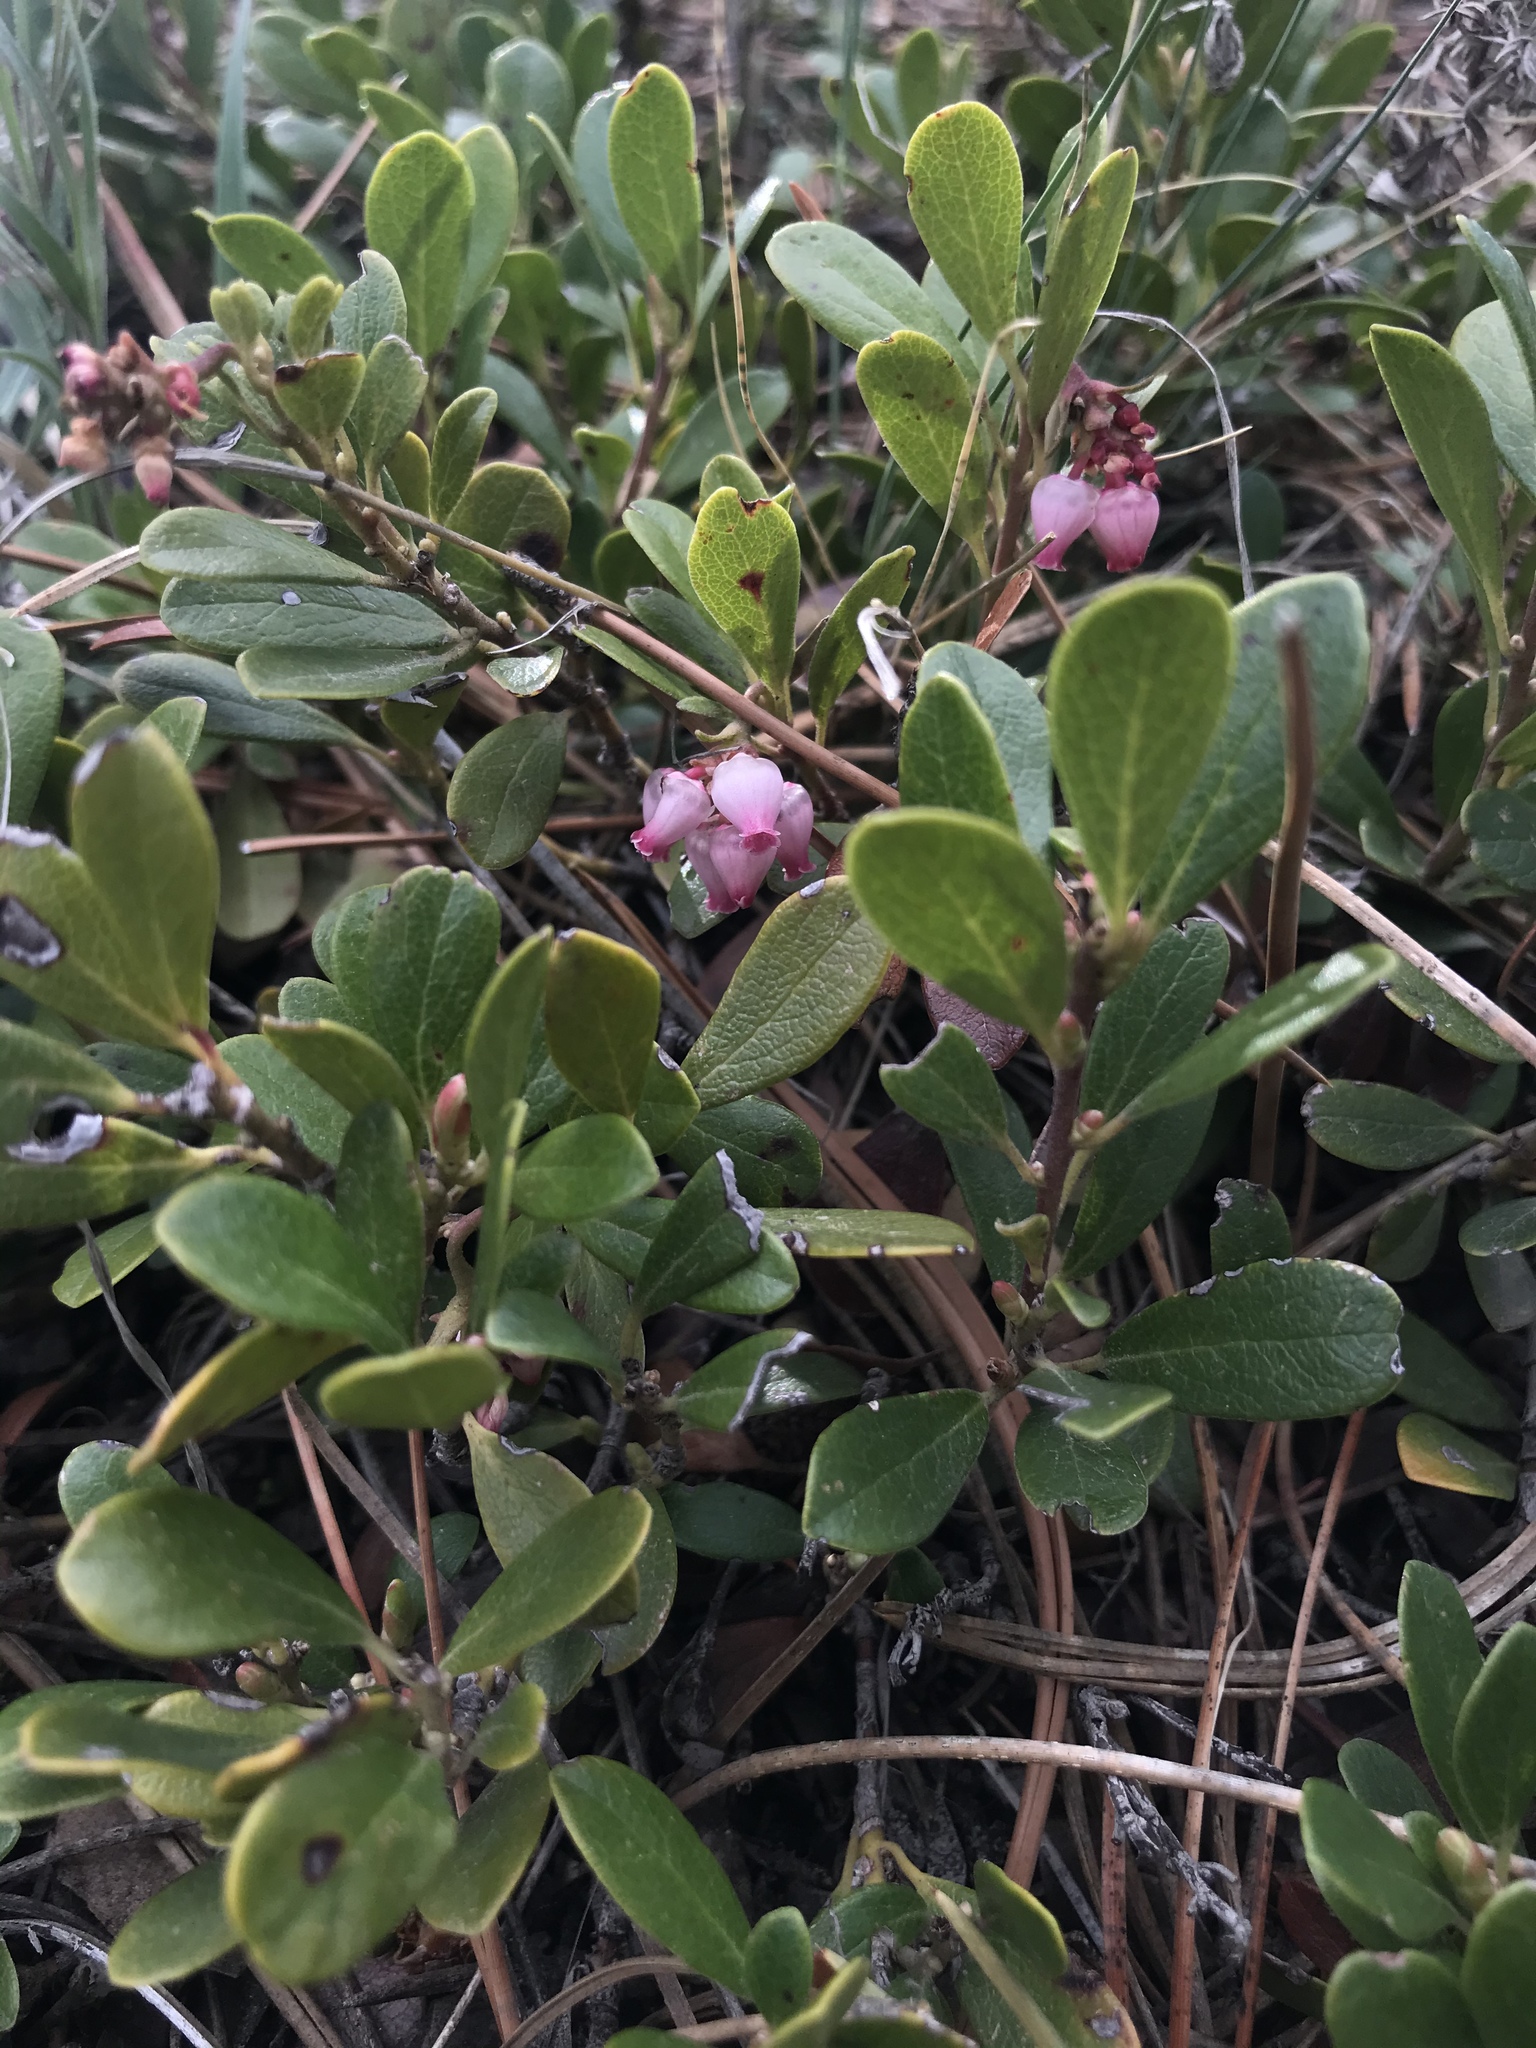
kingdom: Plantae
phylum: Tracheophyta
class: Magnoliopsida
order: Ericales
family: Ericaceae
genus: Arctostaphylos
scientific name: Arctostaphylos uva-ursi
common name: Bearberry
